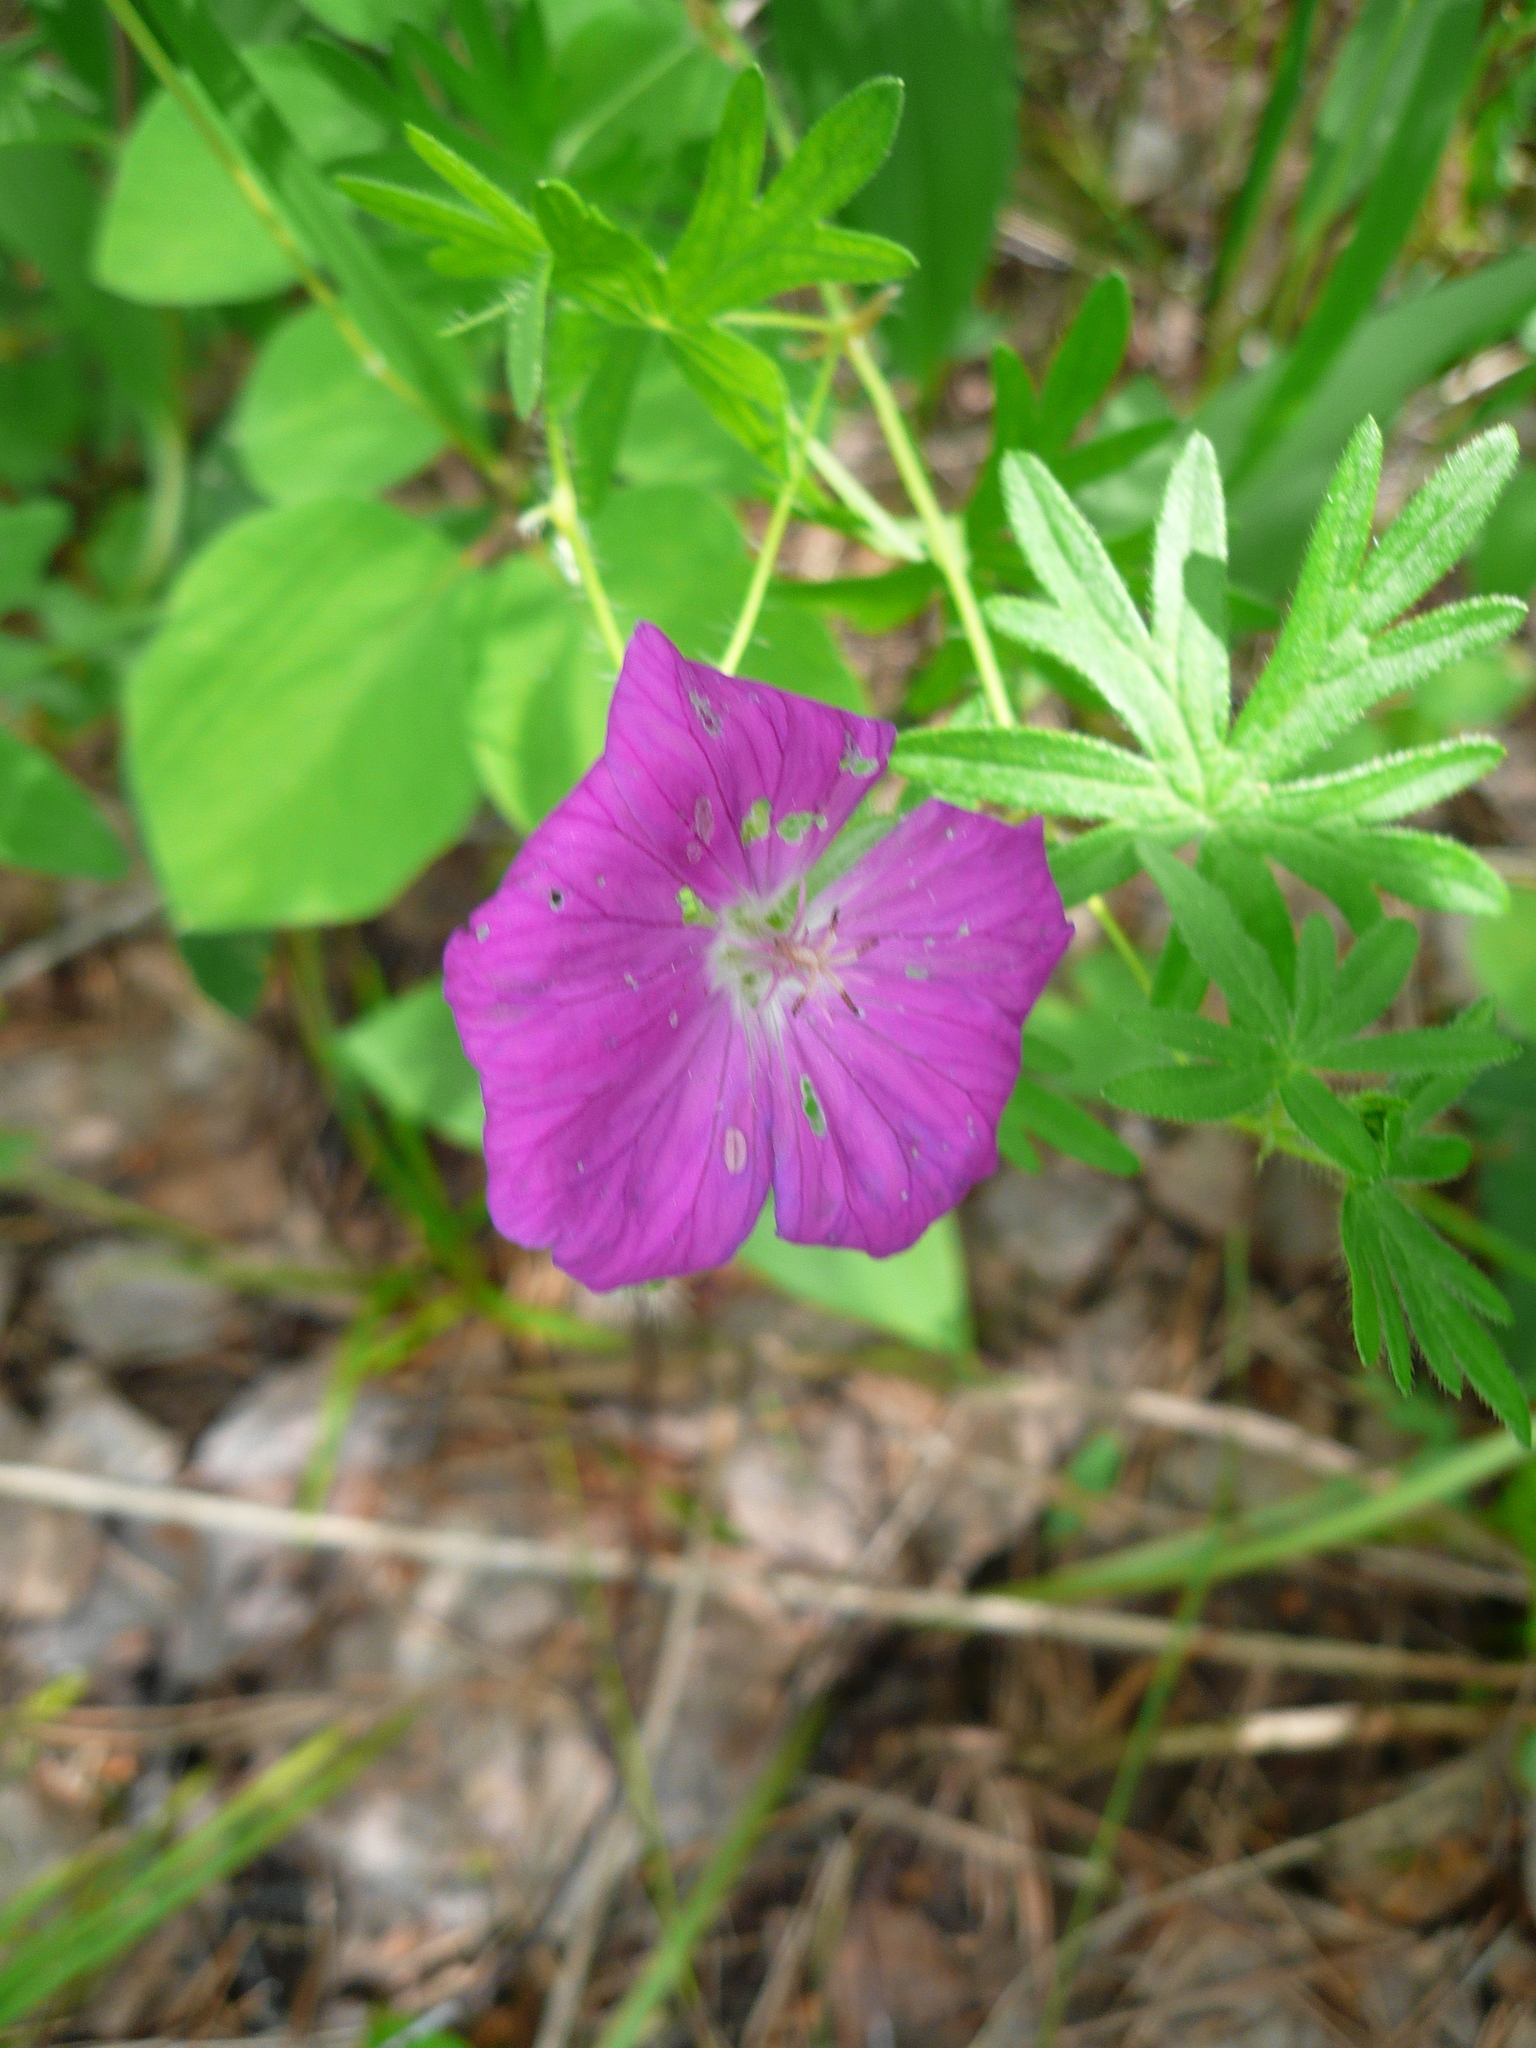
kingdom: Plantae
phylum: Tracheophyta
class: Magnoliopsida
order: Geraniales
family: Geraniaceae
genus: Geranium
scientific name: Geranium sanguineum
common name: Bloody crane's-bill
